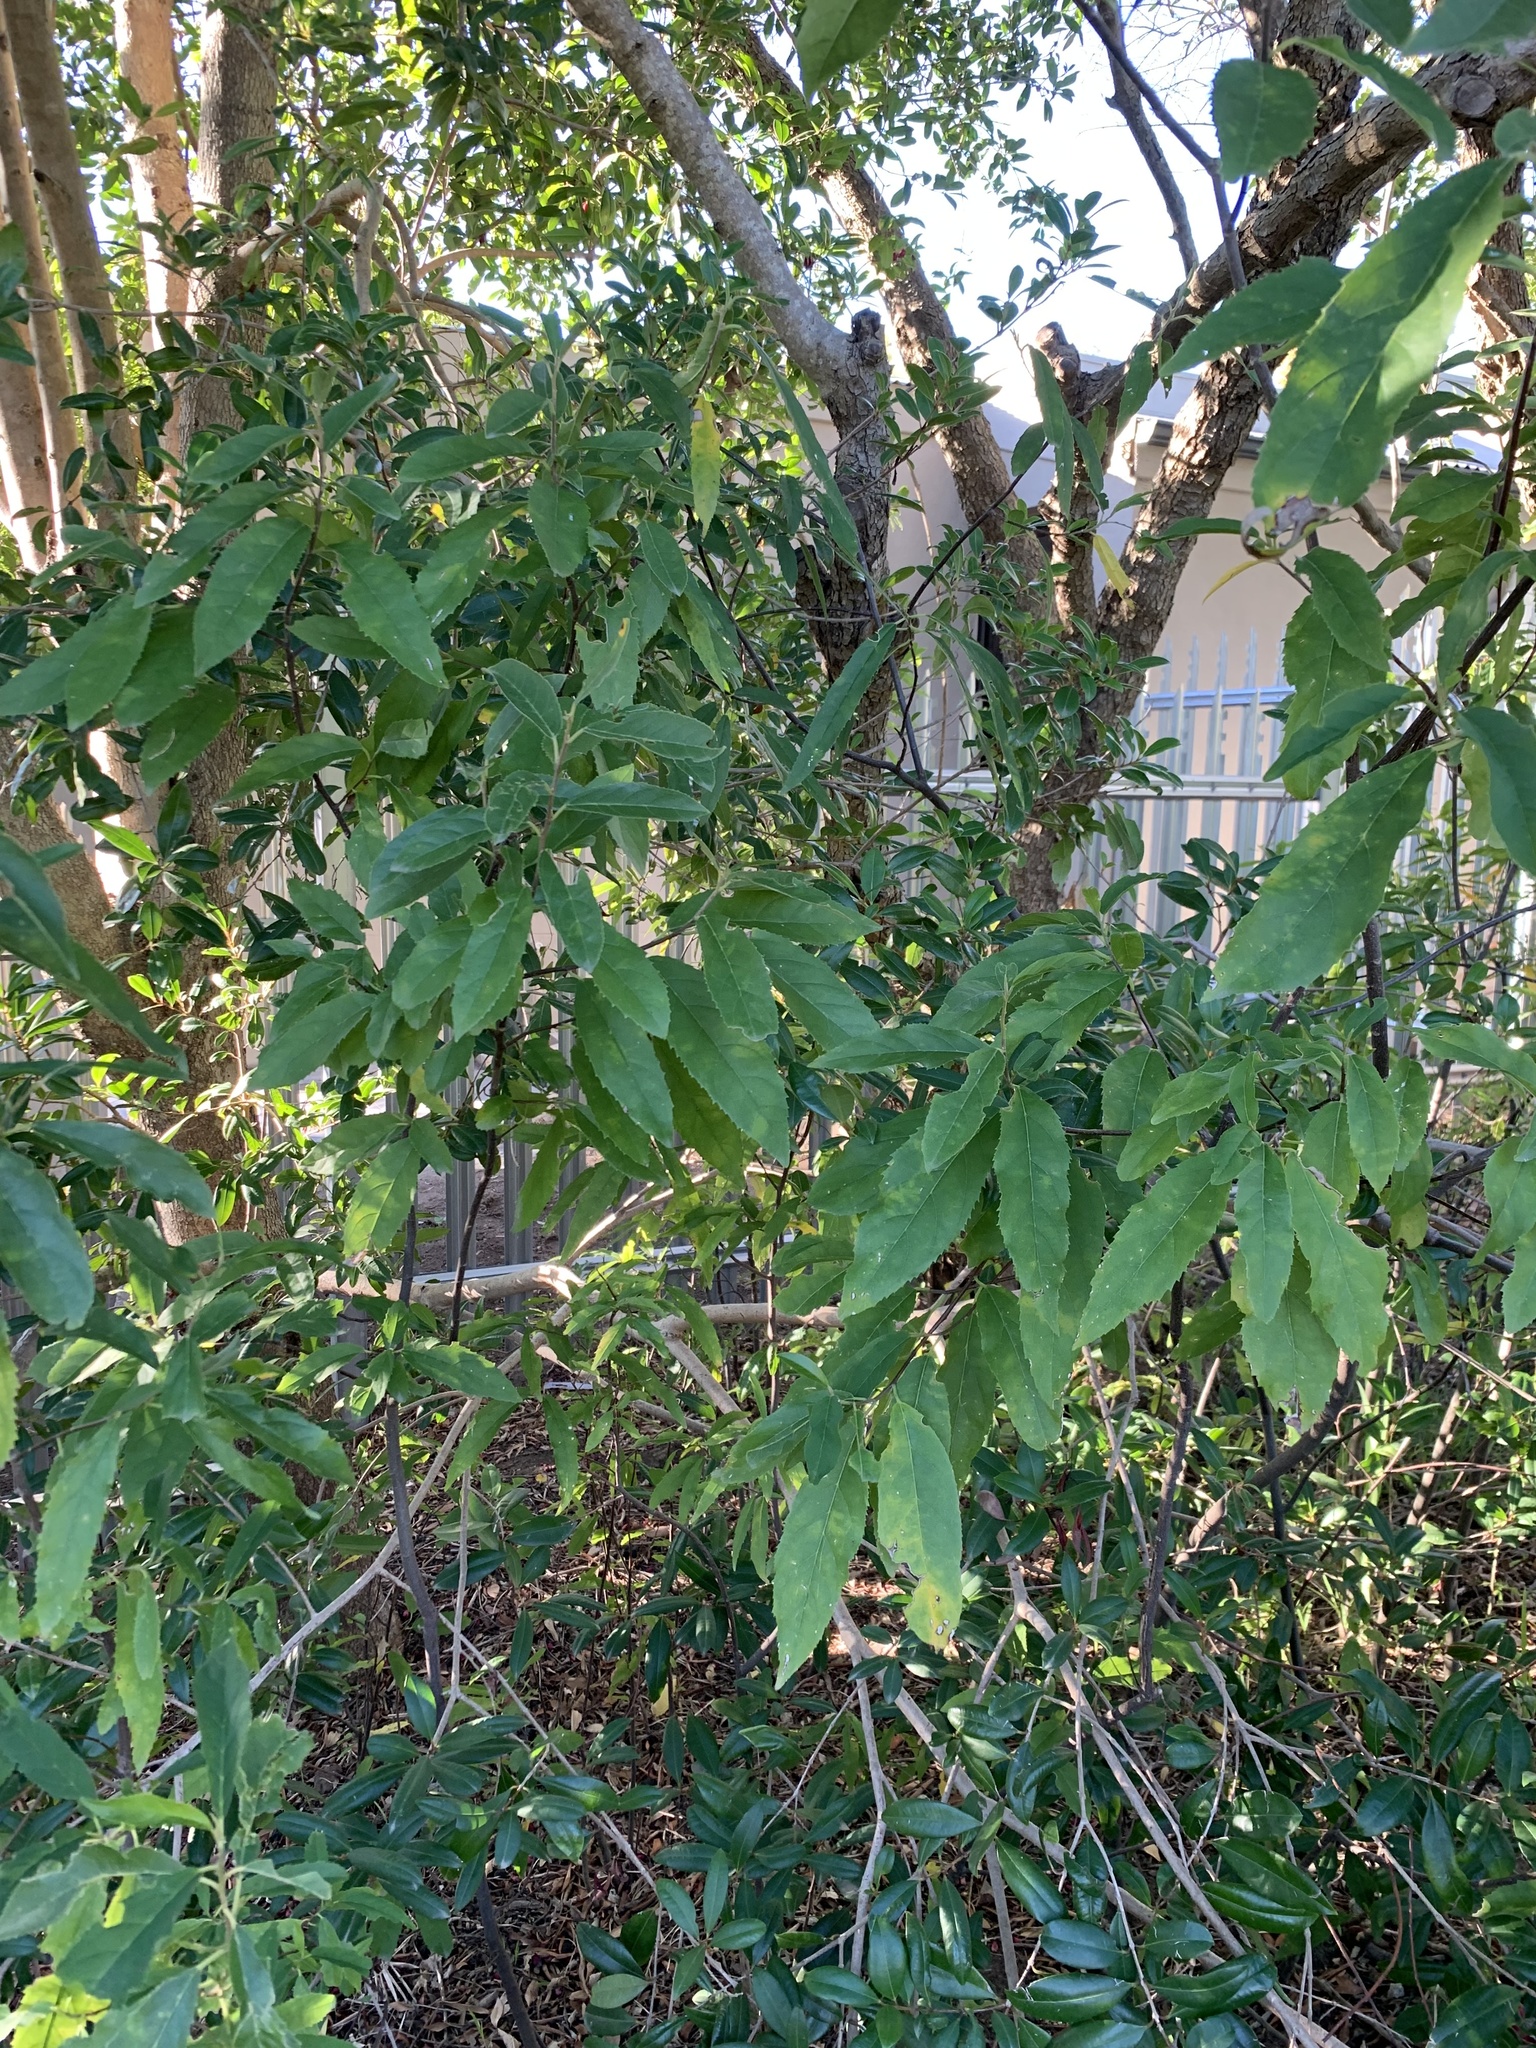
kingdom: Plantae
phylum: Tracheophyta
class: Magnoliopsida
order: Malpighiales
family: Achariaceae
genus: Kiggelaria
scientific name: Kiggelaria africana
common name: Wild peach
